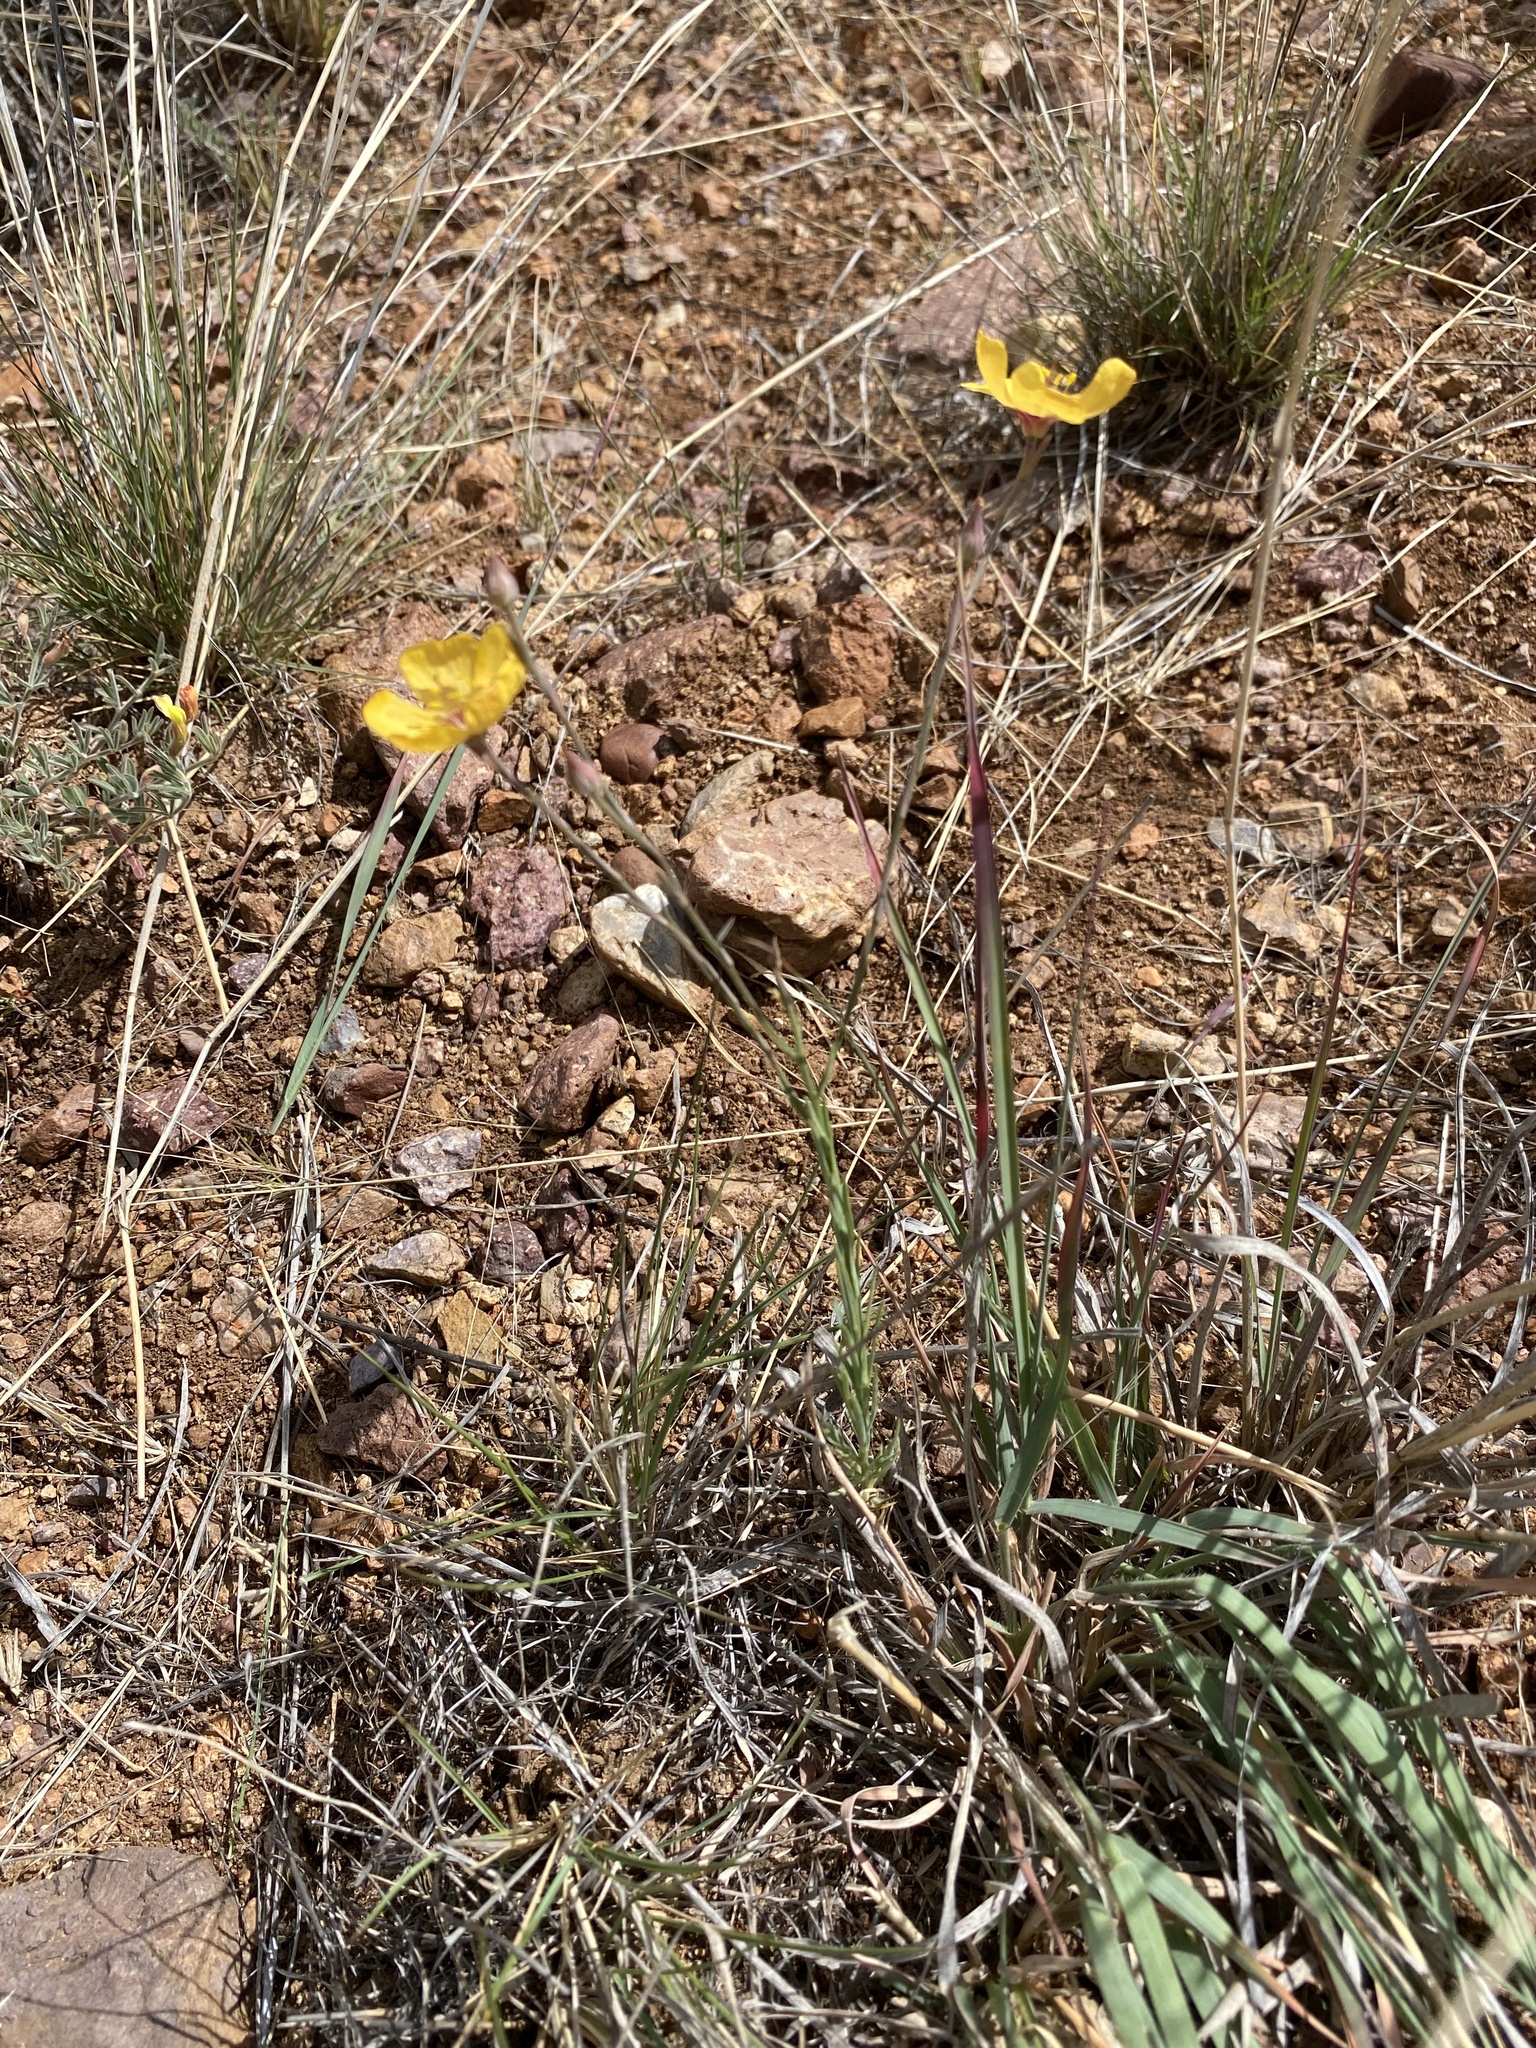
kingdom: Plantae
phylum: Tracheophyta
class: Magnoliopsida
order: Malpighiales
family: Linaceae
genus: Linum
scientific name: Linum puberulum
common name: Plains flax
